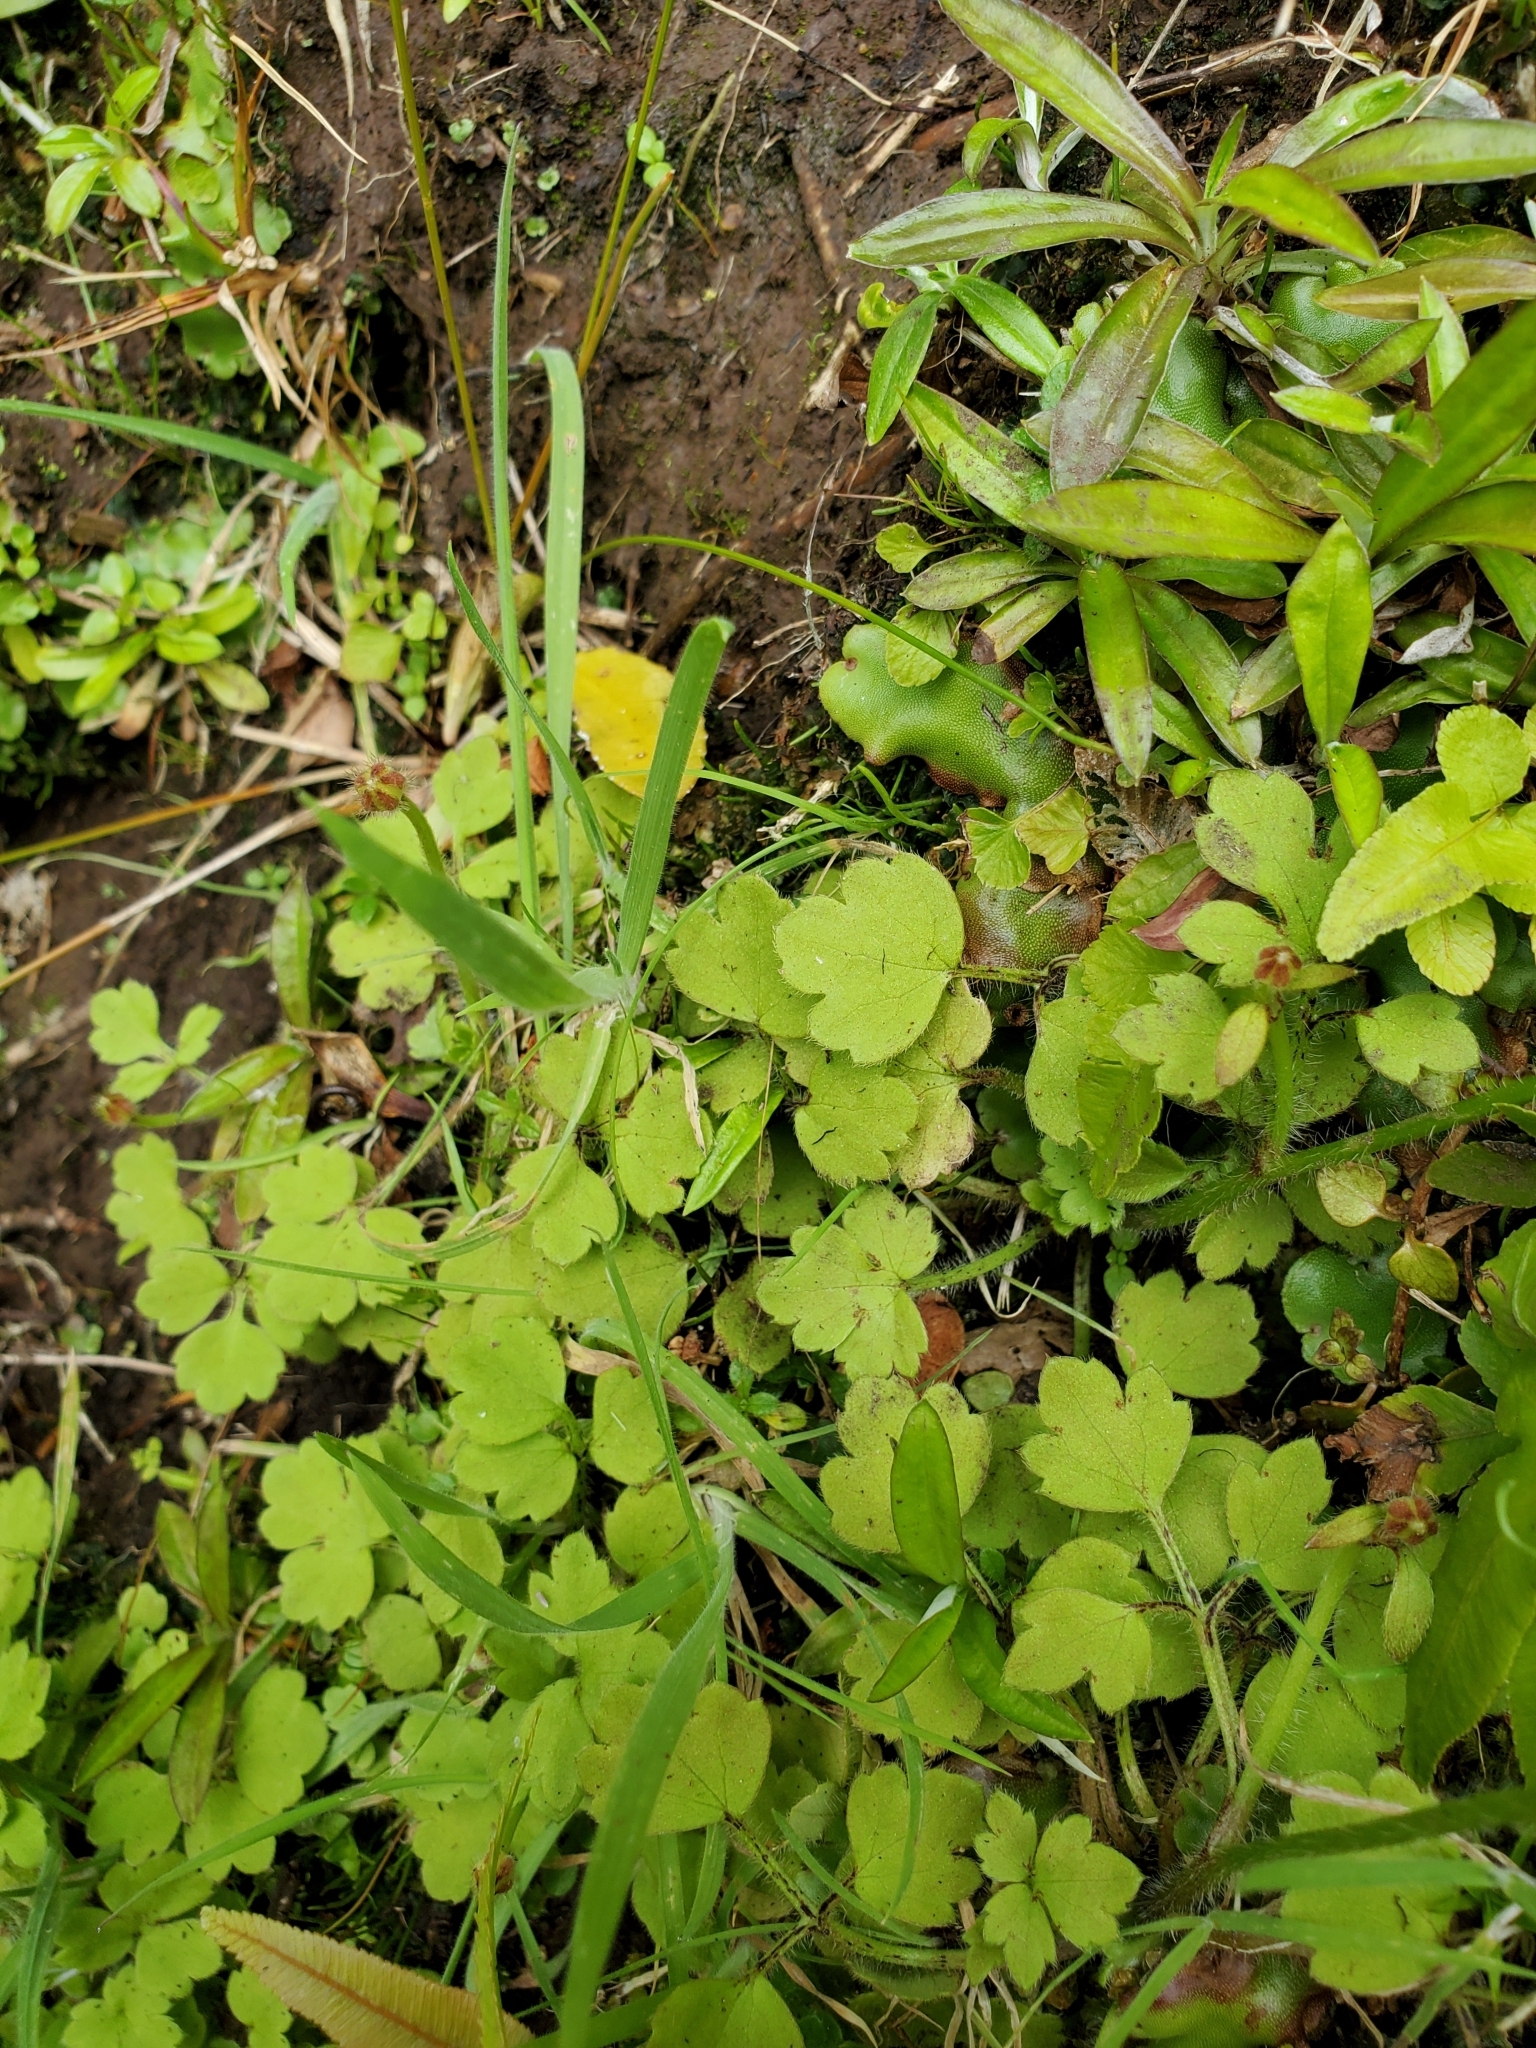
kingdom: Plantae
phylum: Tracheophyta
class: Magnoliopsida
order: Ranunculales
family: Ranunculaceae
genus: Ranunculus
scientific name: Ranunculus reflexus
